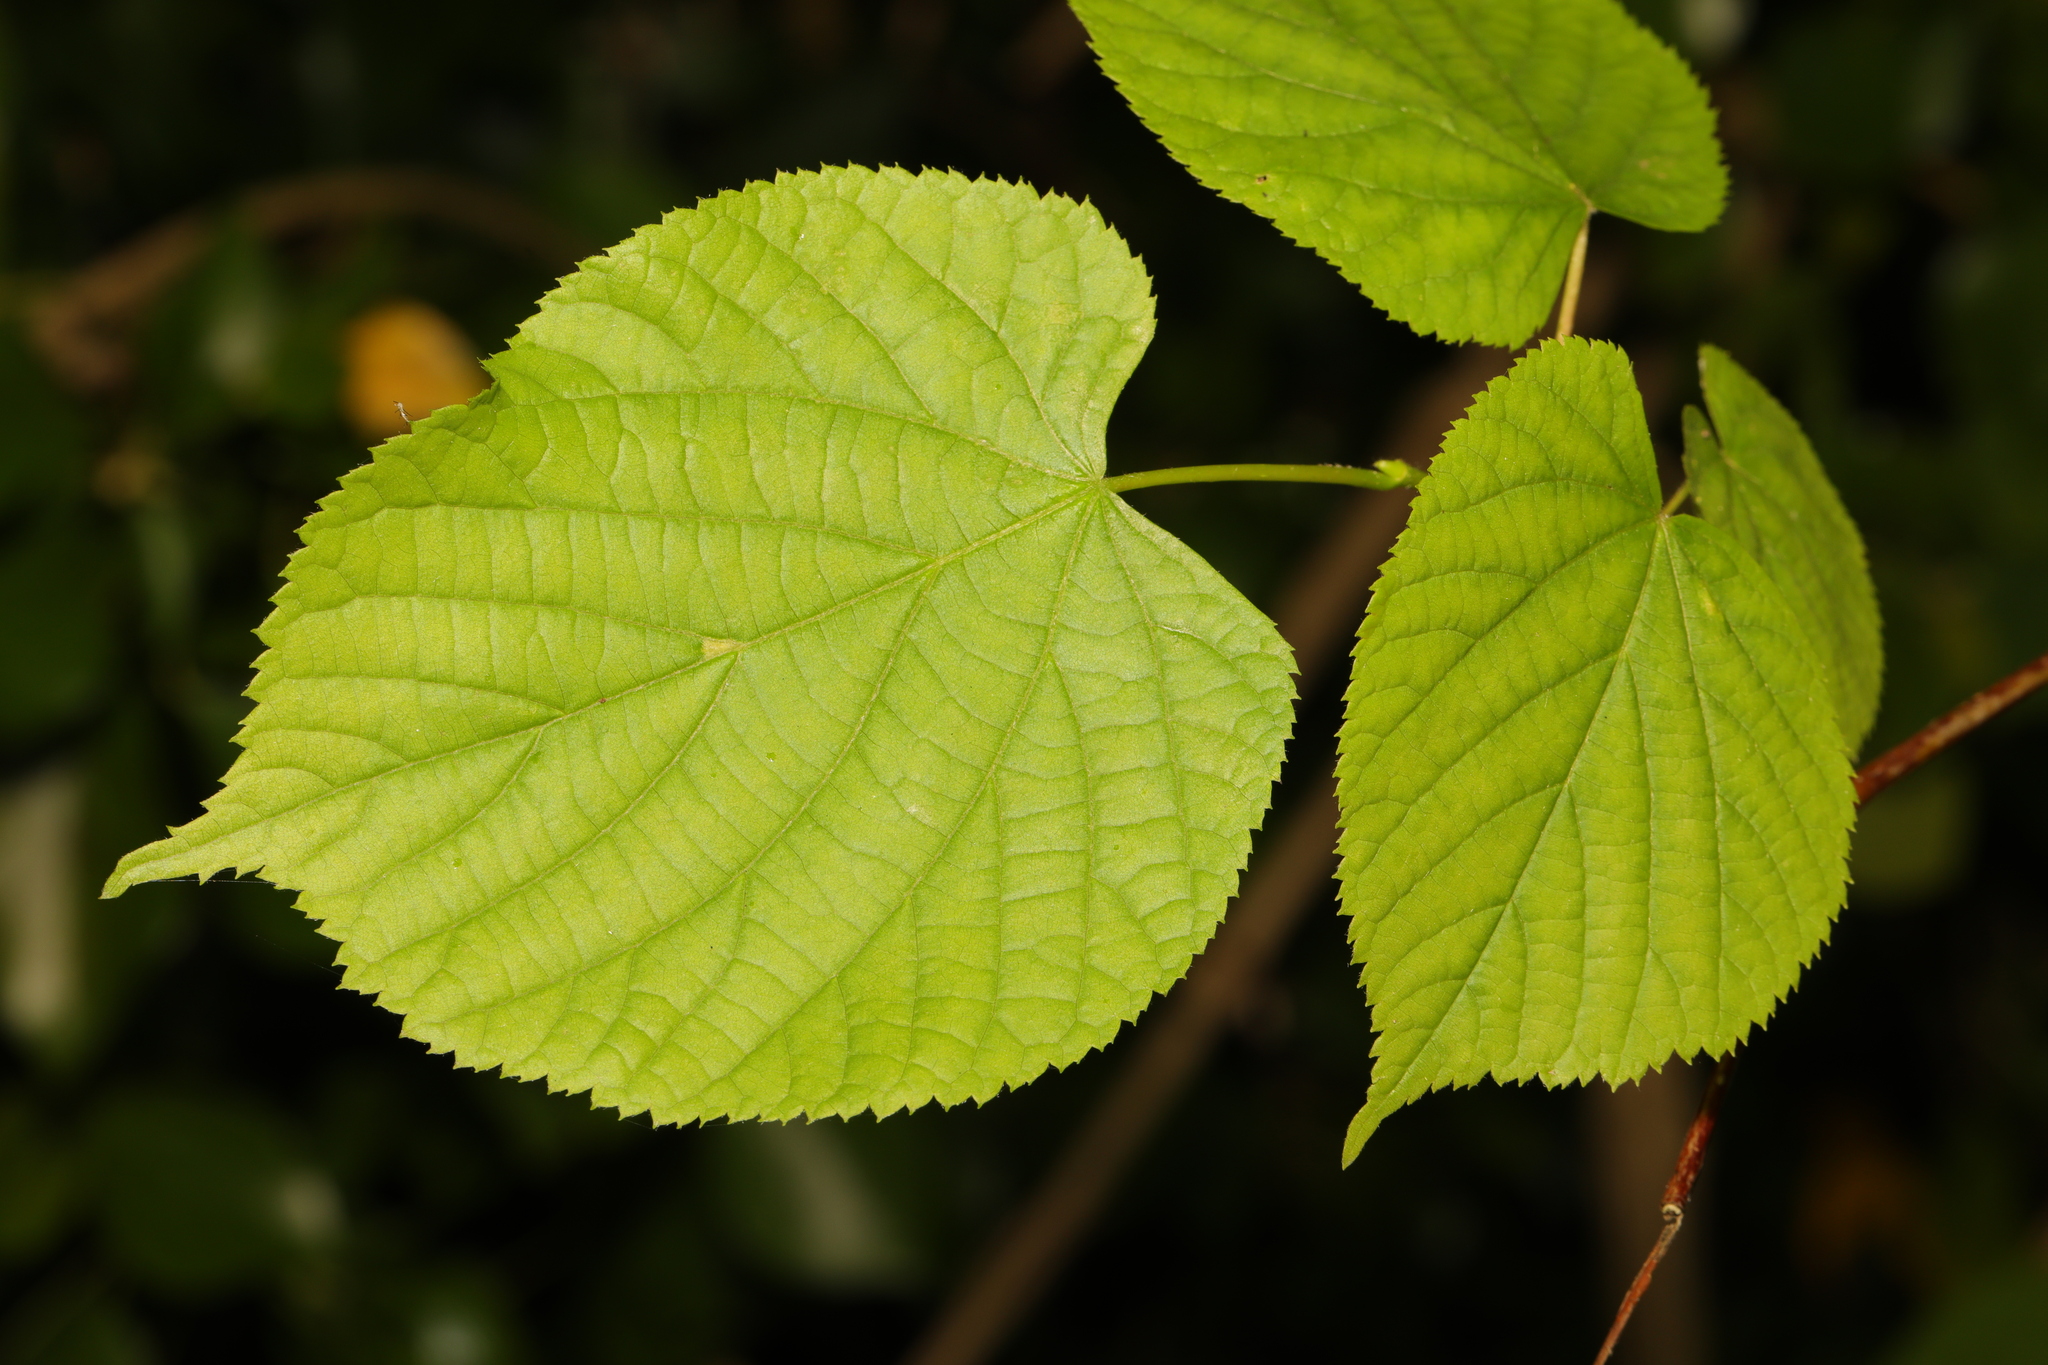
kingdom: Plantae
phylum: Tracheophyta
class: Magnoliopsida
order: Malvales
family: Malvaceae
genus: Tilia
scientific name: Tilia cordata
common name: Small-leaved lime
